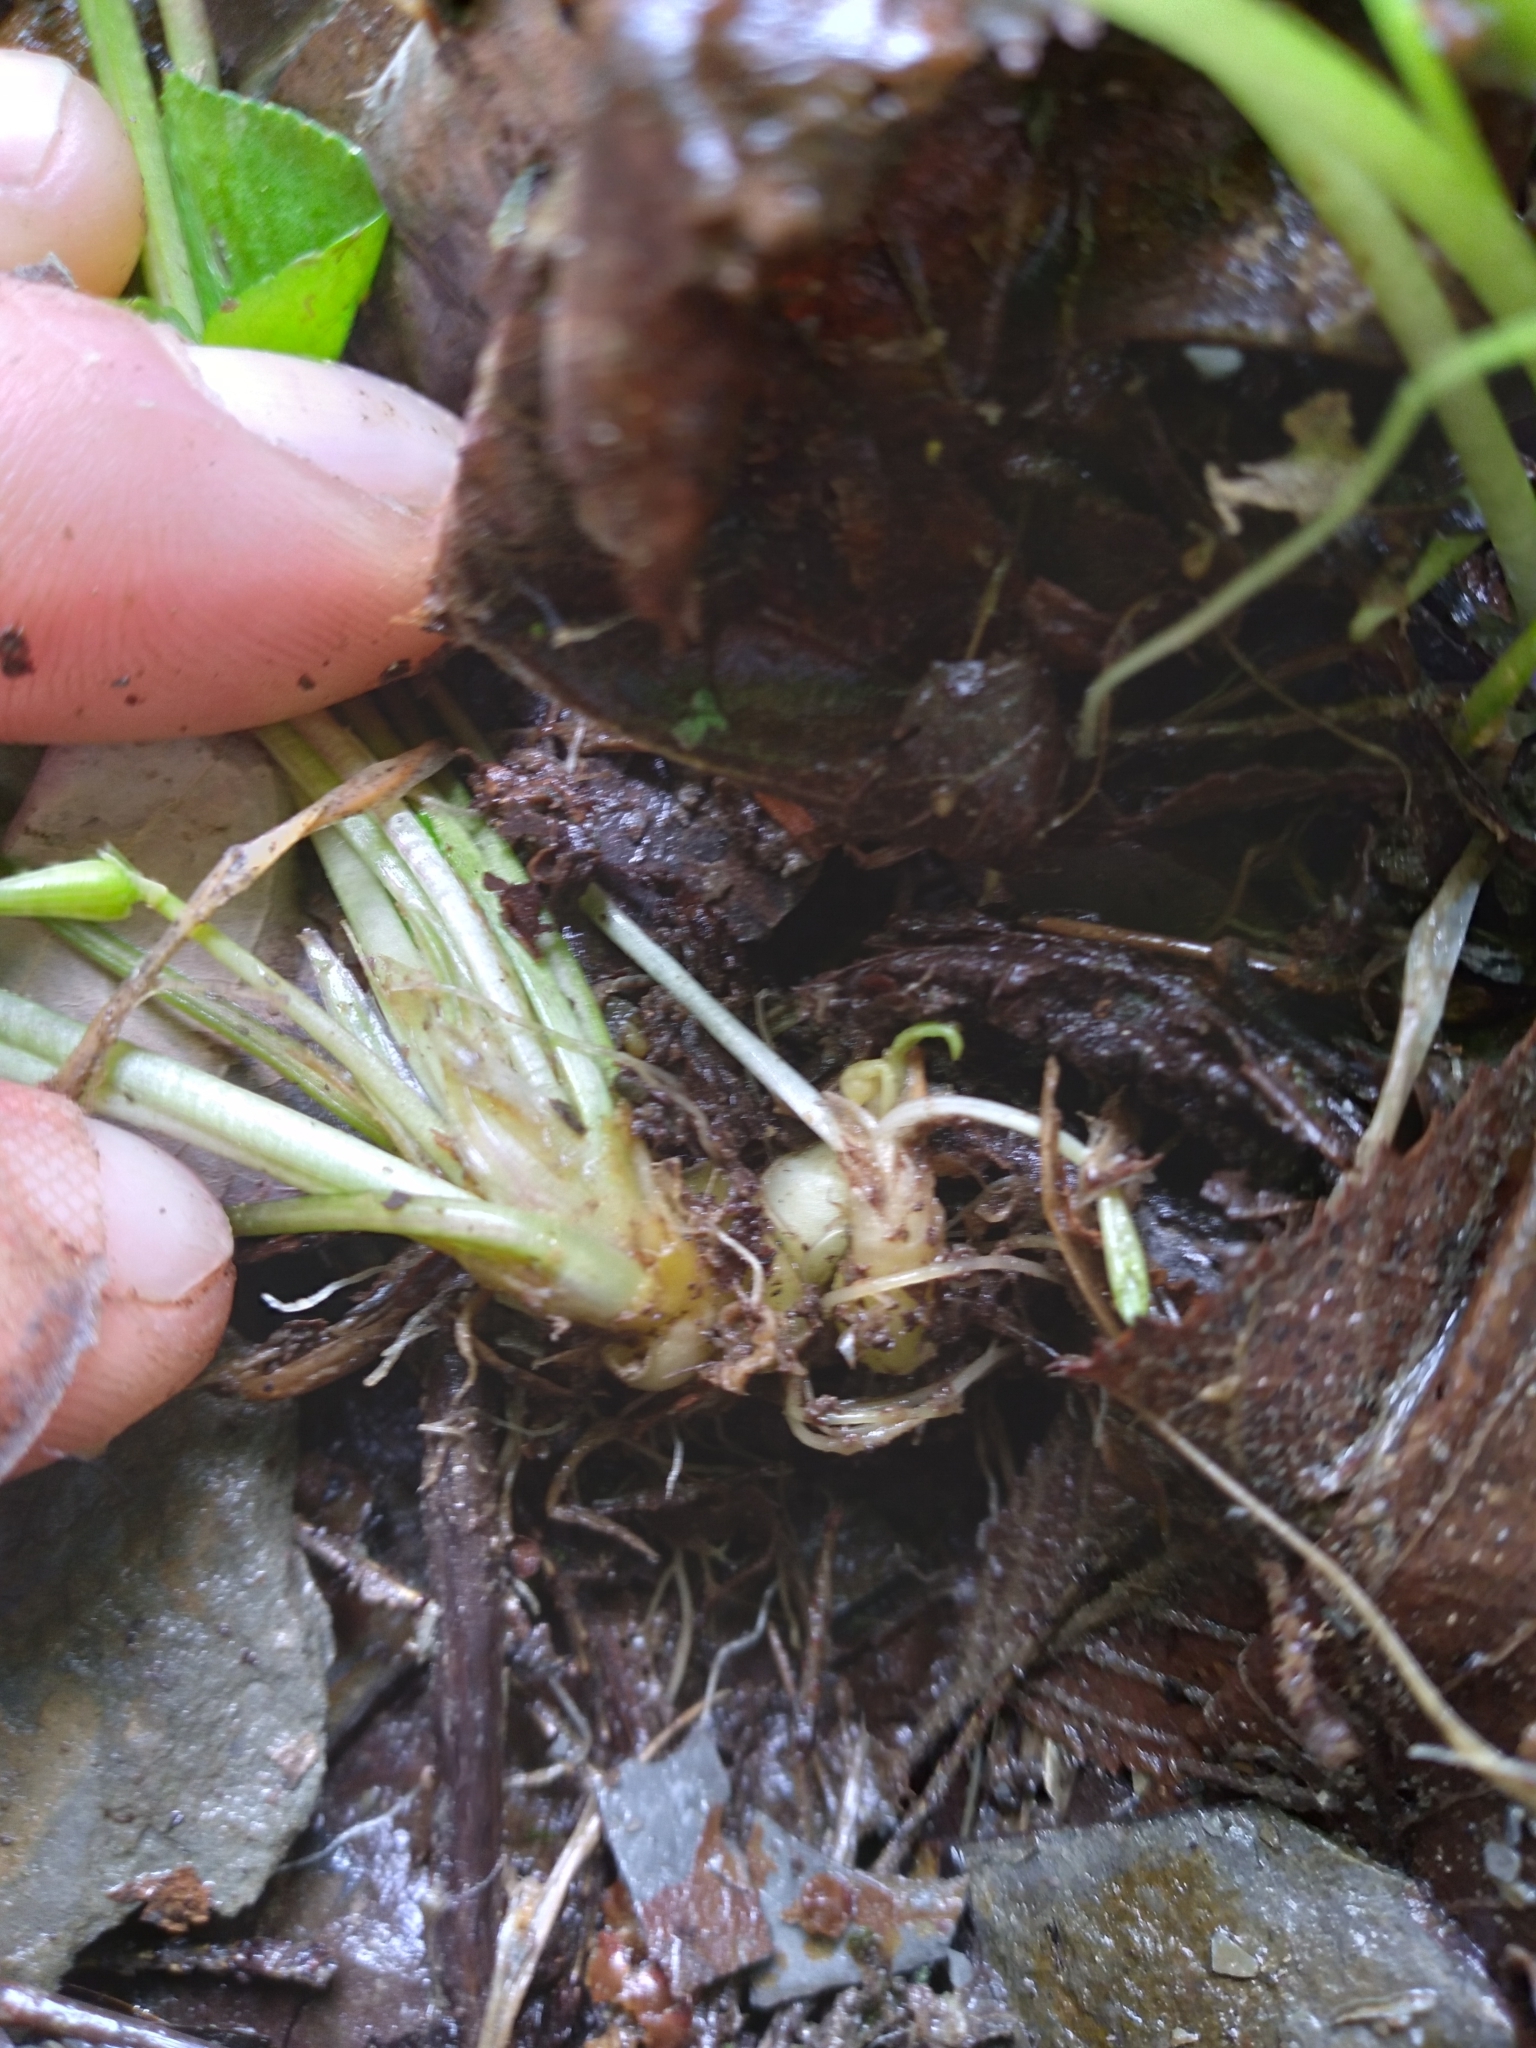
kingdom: Plantae
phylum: Tracheophyta
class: Magnoliopsida
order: Malpighiales
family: Violaceae
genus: Viola
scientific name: Viola cucullata
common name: Marsh blue violet
